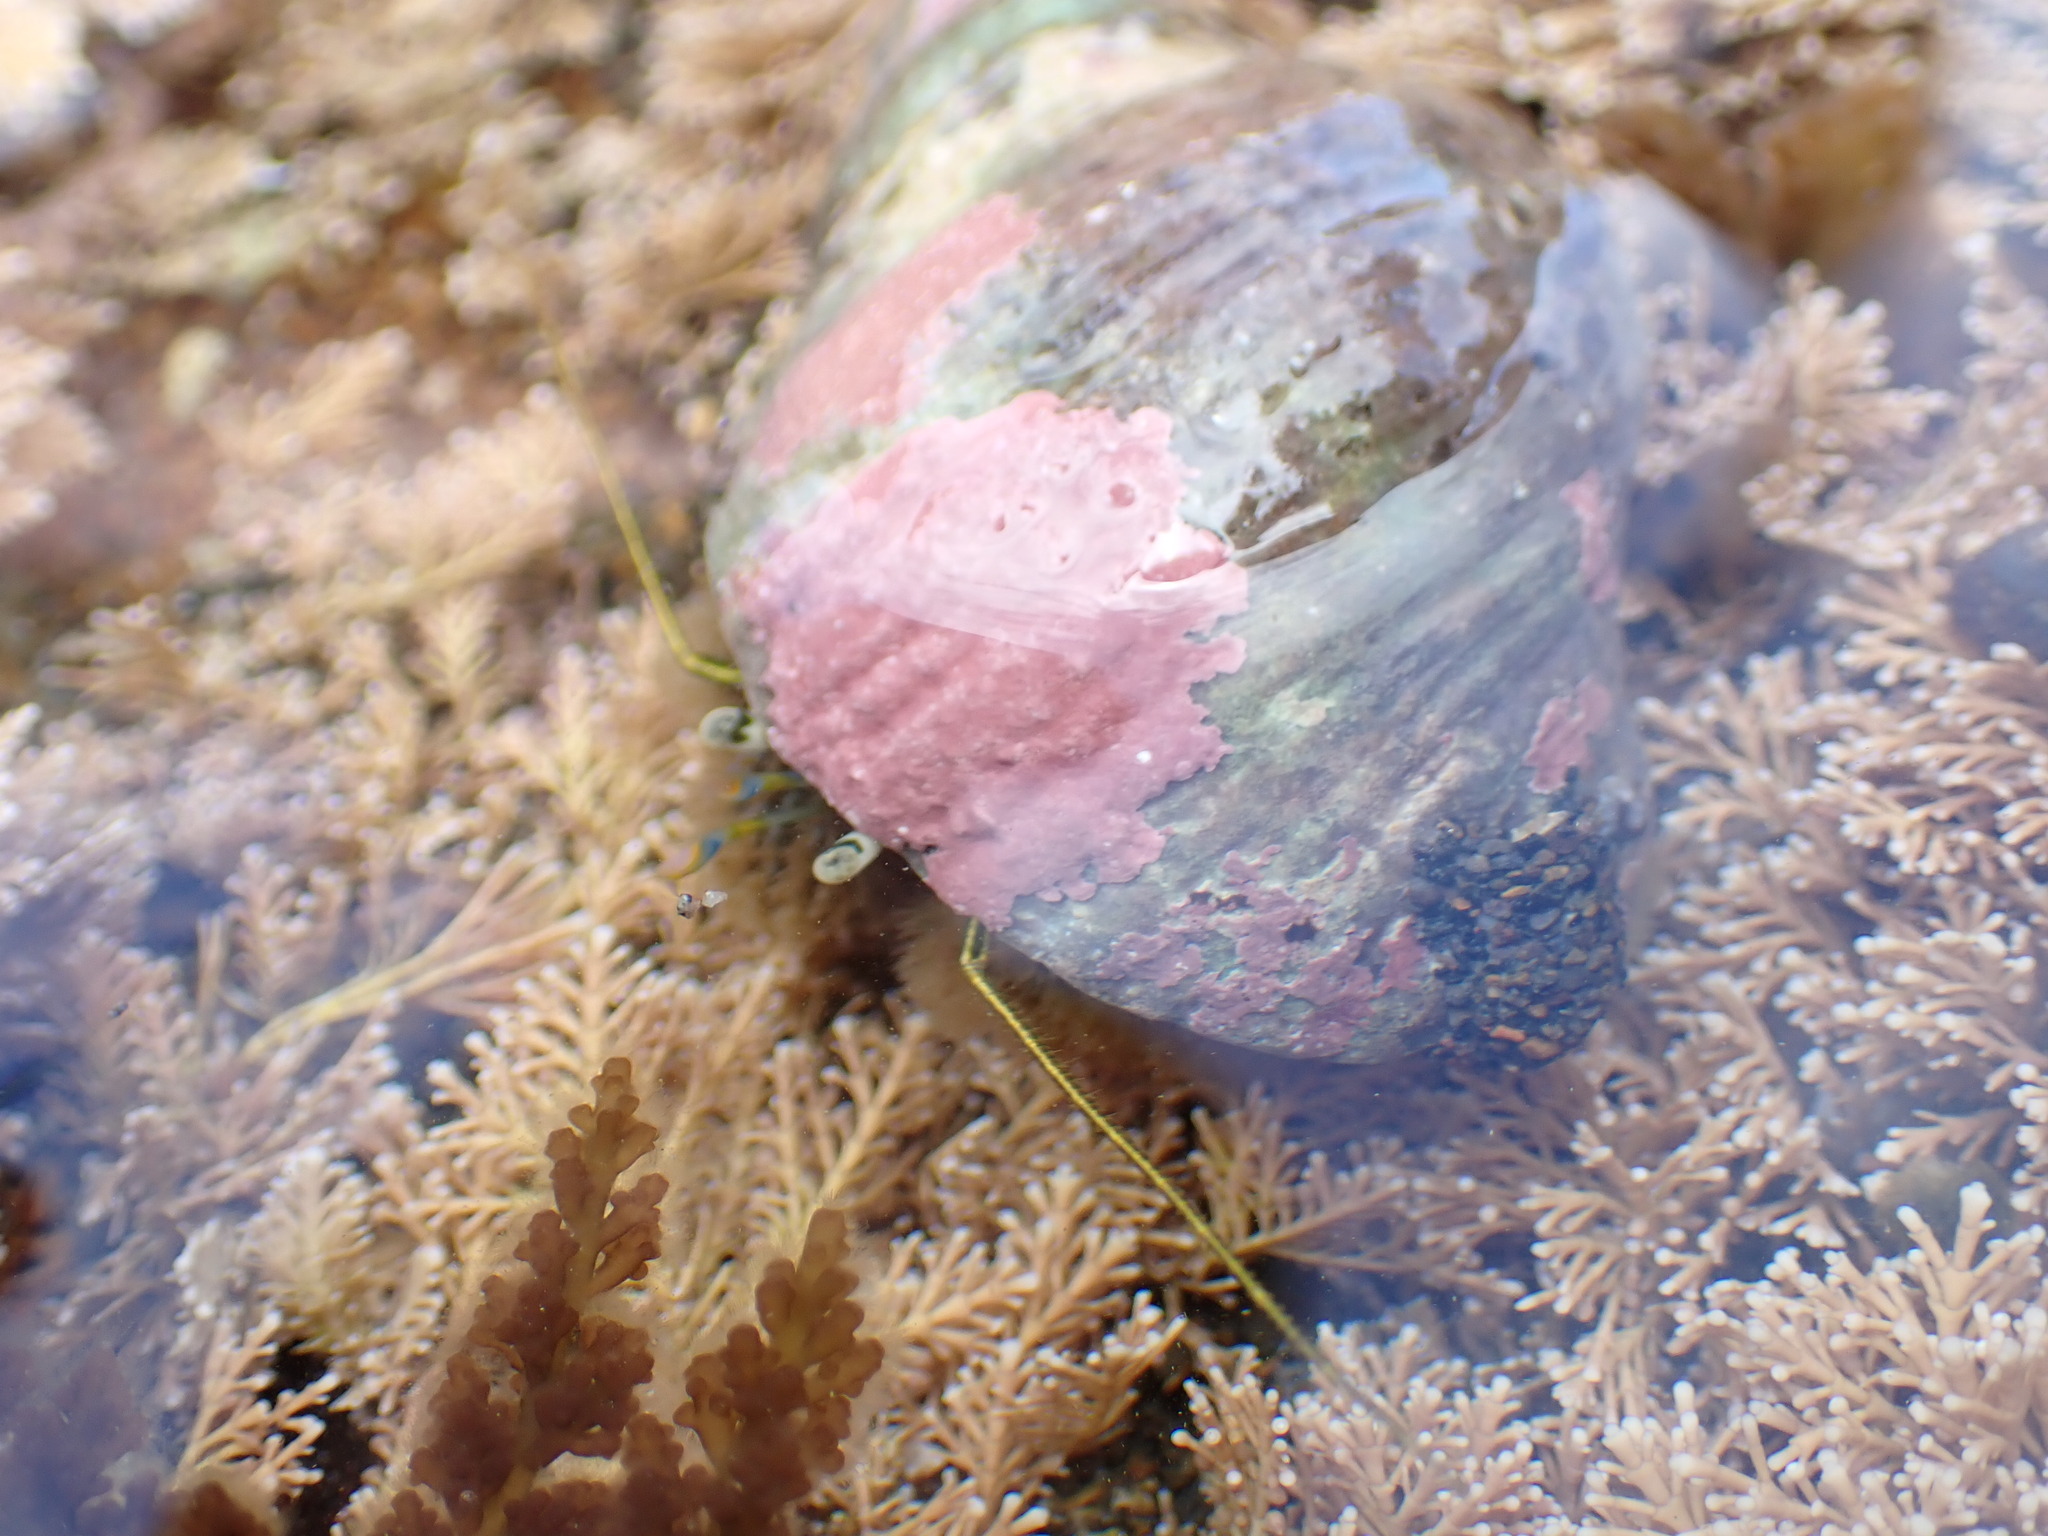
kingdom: Animalia
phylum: Arthropoda
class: Malacostraca
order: Decapoda
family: Paguridae
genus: Pagurus
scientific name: Pagurus novizealandiae
